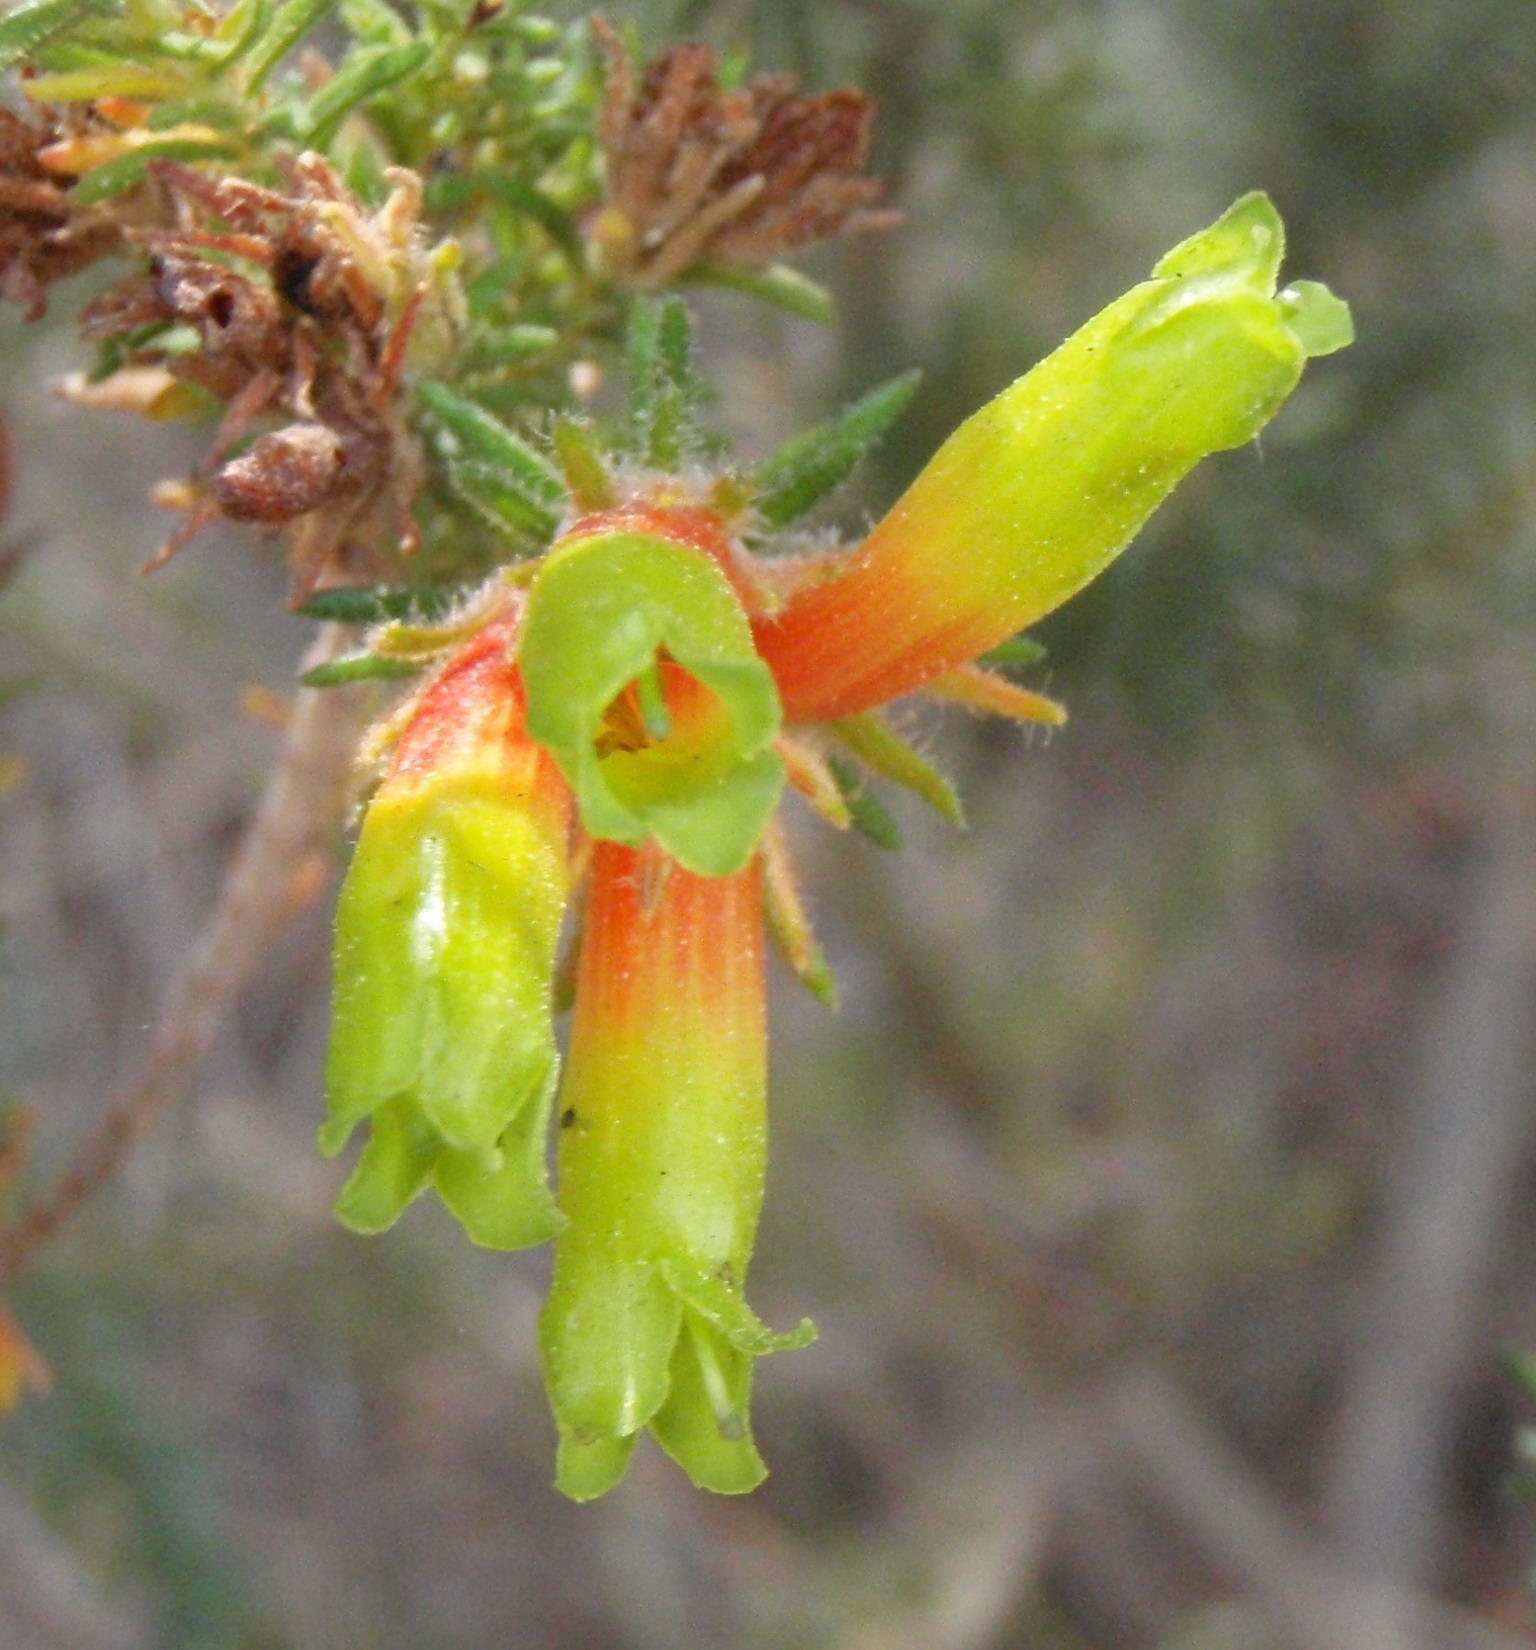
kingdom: Plantae
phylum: Tracheophyta
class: Magnoliopsida
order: Ericales
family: Ericaceae
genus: Erica
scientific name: Erica unicolor
